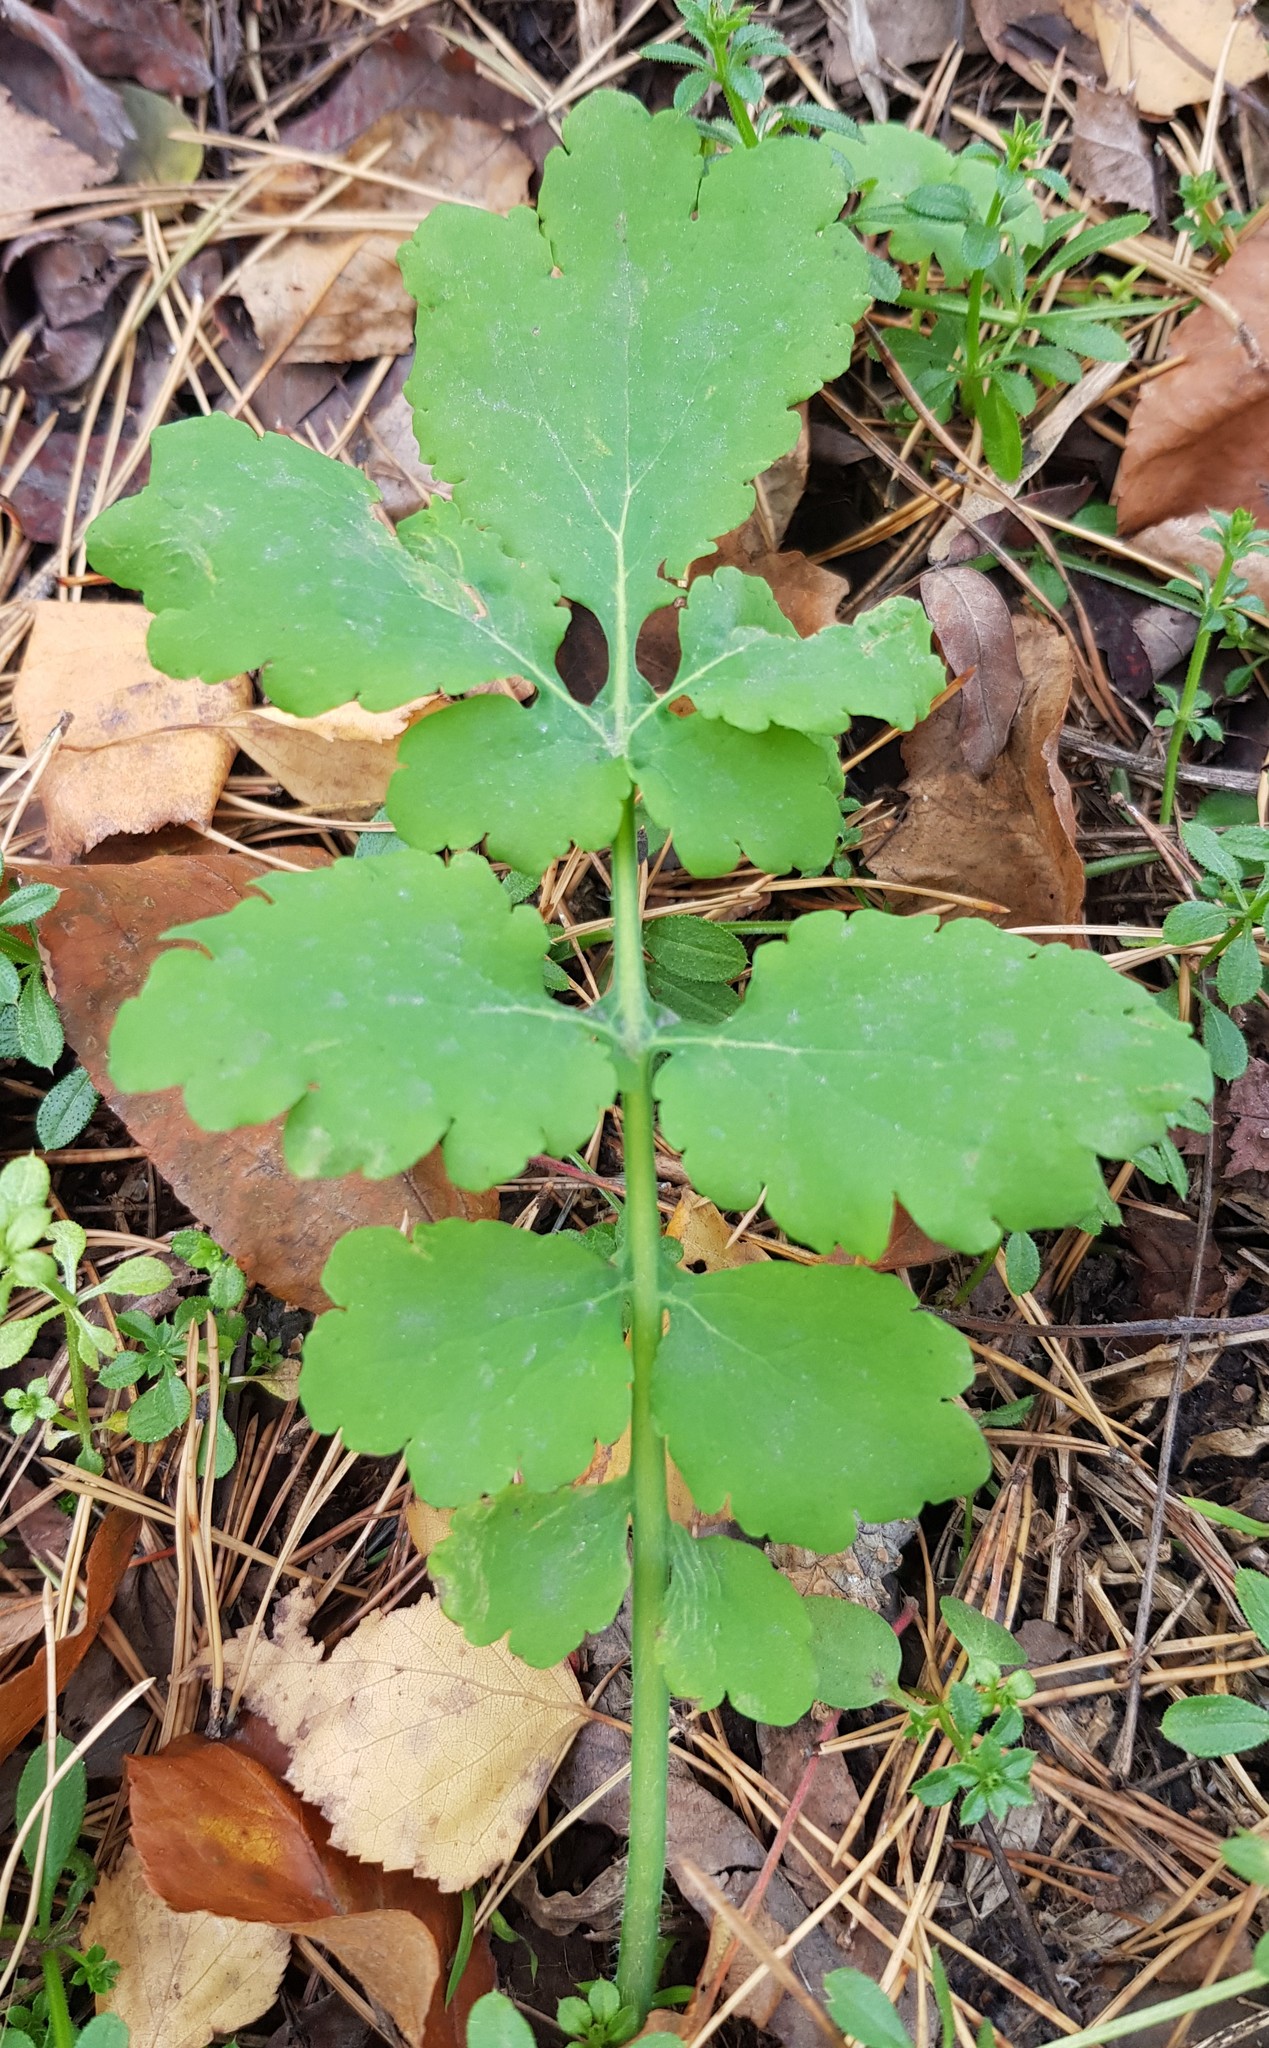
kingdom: Plantae
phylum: Tracheophyta
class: Magnoliopsida
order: Ranunculales
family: Papaveraceae
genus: Chelidonium
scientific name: Chelidonium majus
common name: Greater celandine
